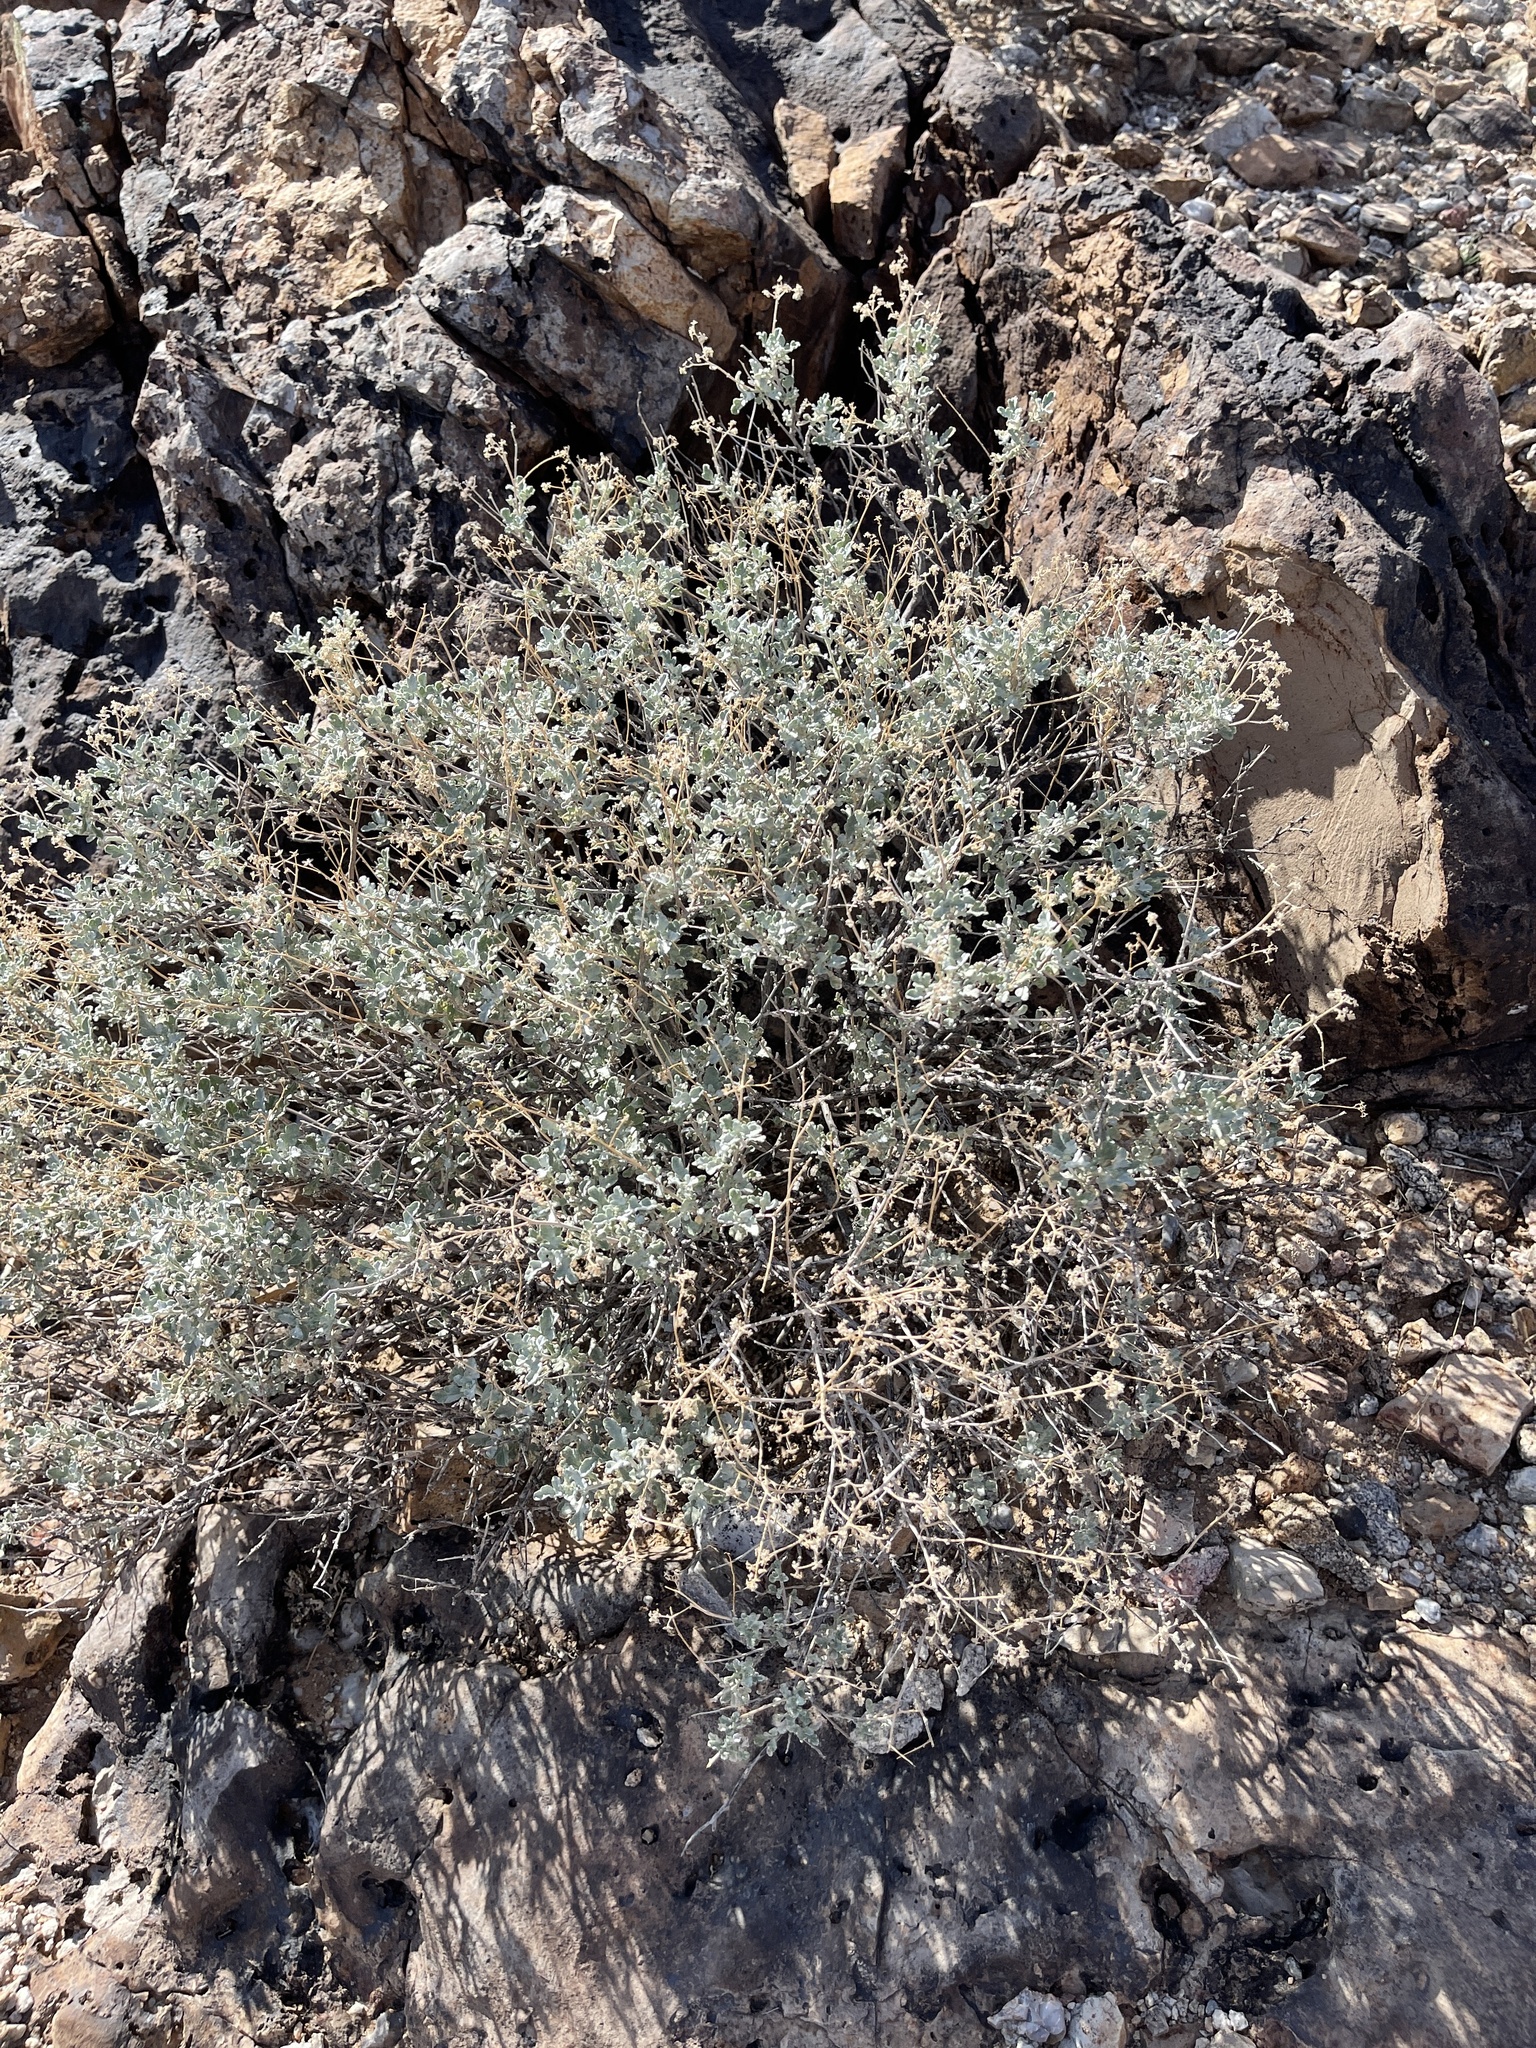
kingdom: Plantae
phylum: Tracheophyta
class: Magnoliopsida
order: Asterales
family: Asteraceae
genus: Parthenium
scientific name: Parthenium incanum
